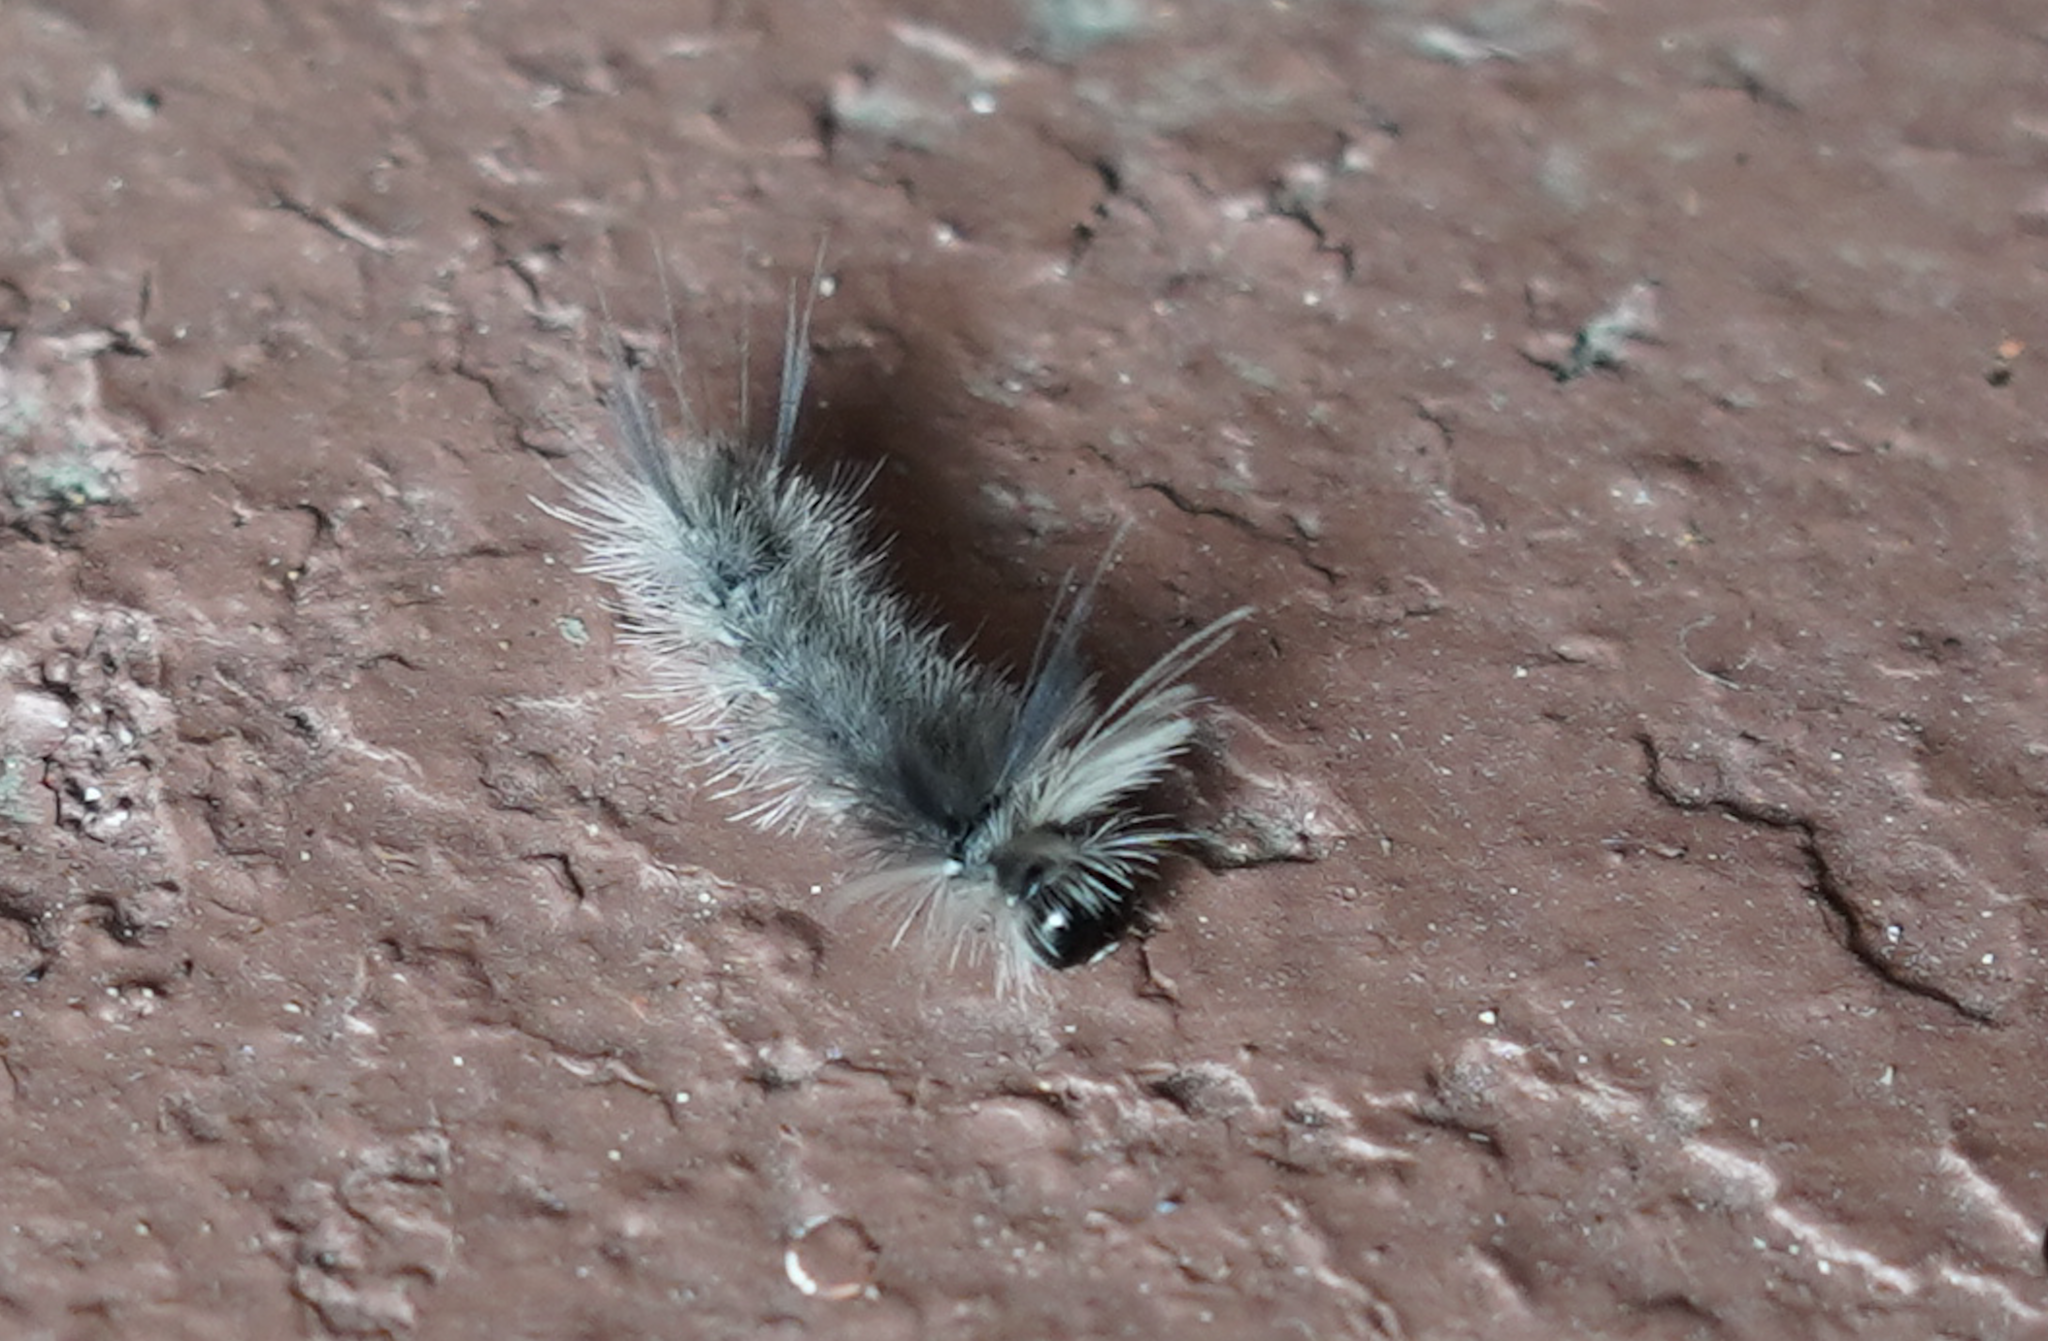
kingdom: Animalia
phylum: Arthropoda
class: Insecta
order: Lepidoptera
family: Erebidae
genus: Halysidota
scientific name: Halysidota tessellaris
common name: Banded tussock moth
